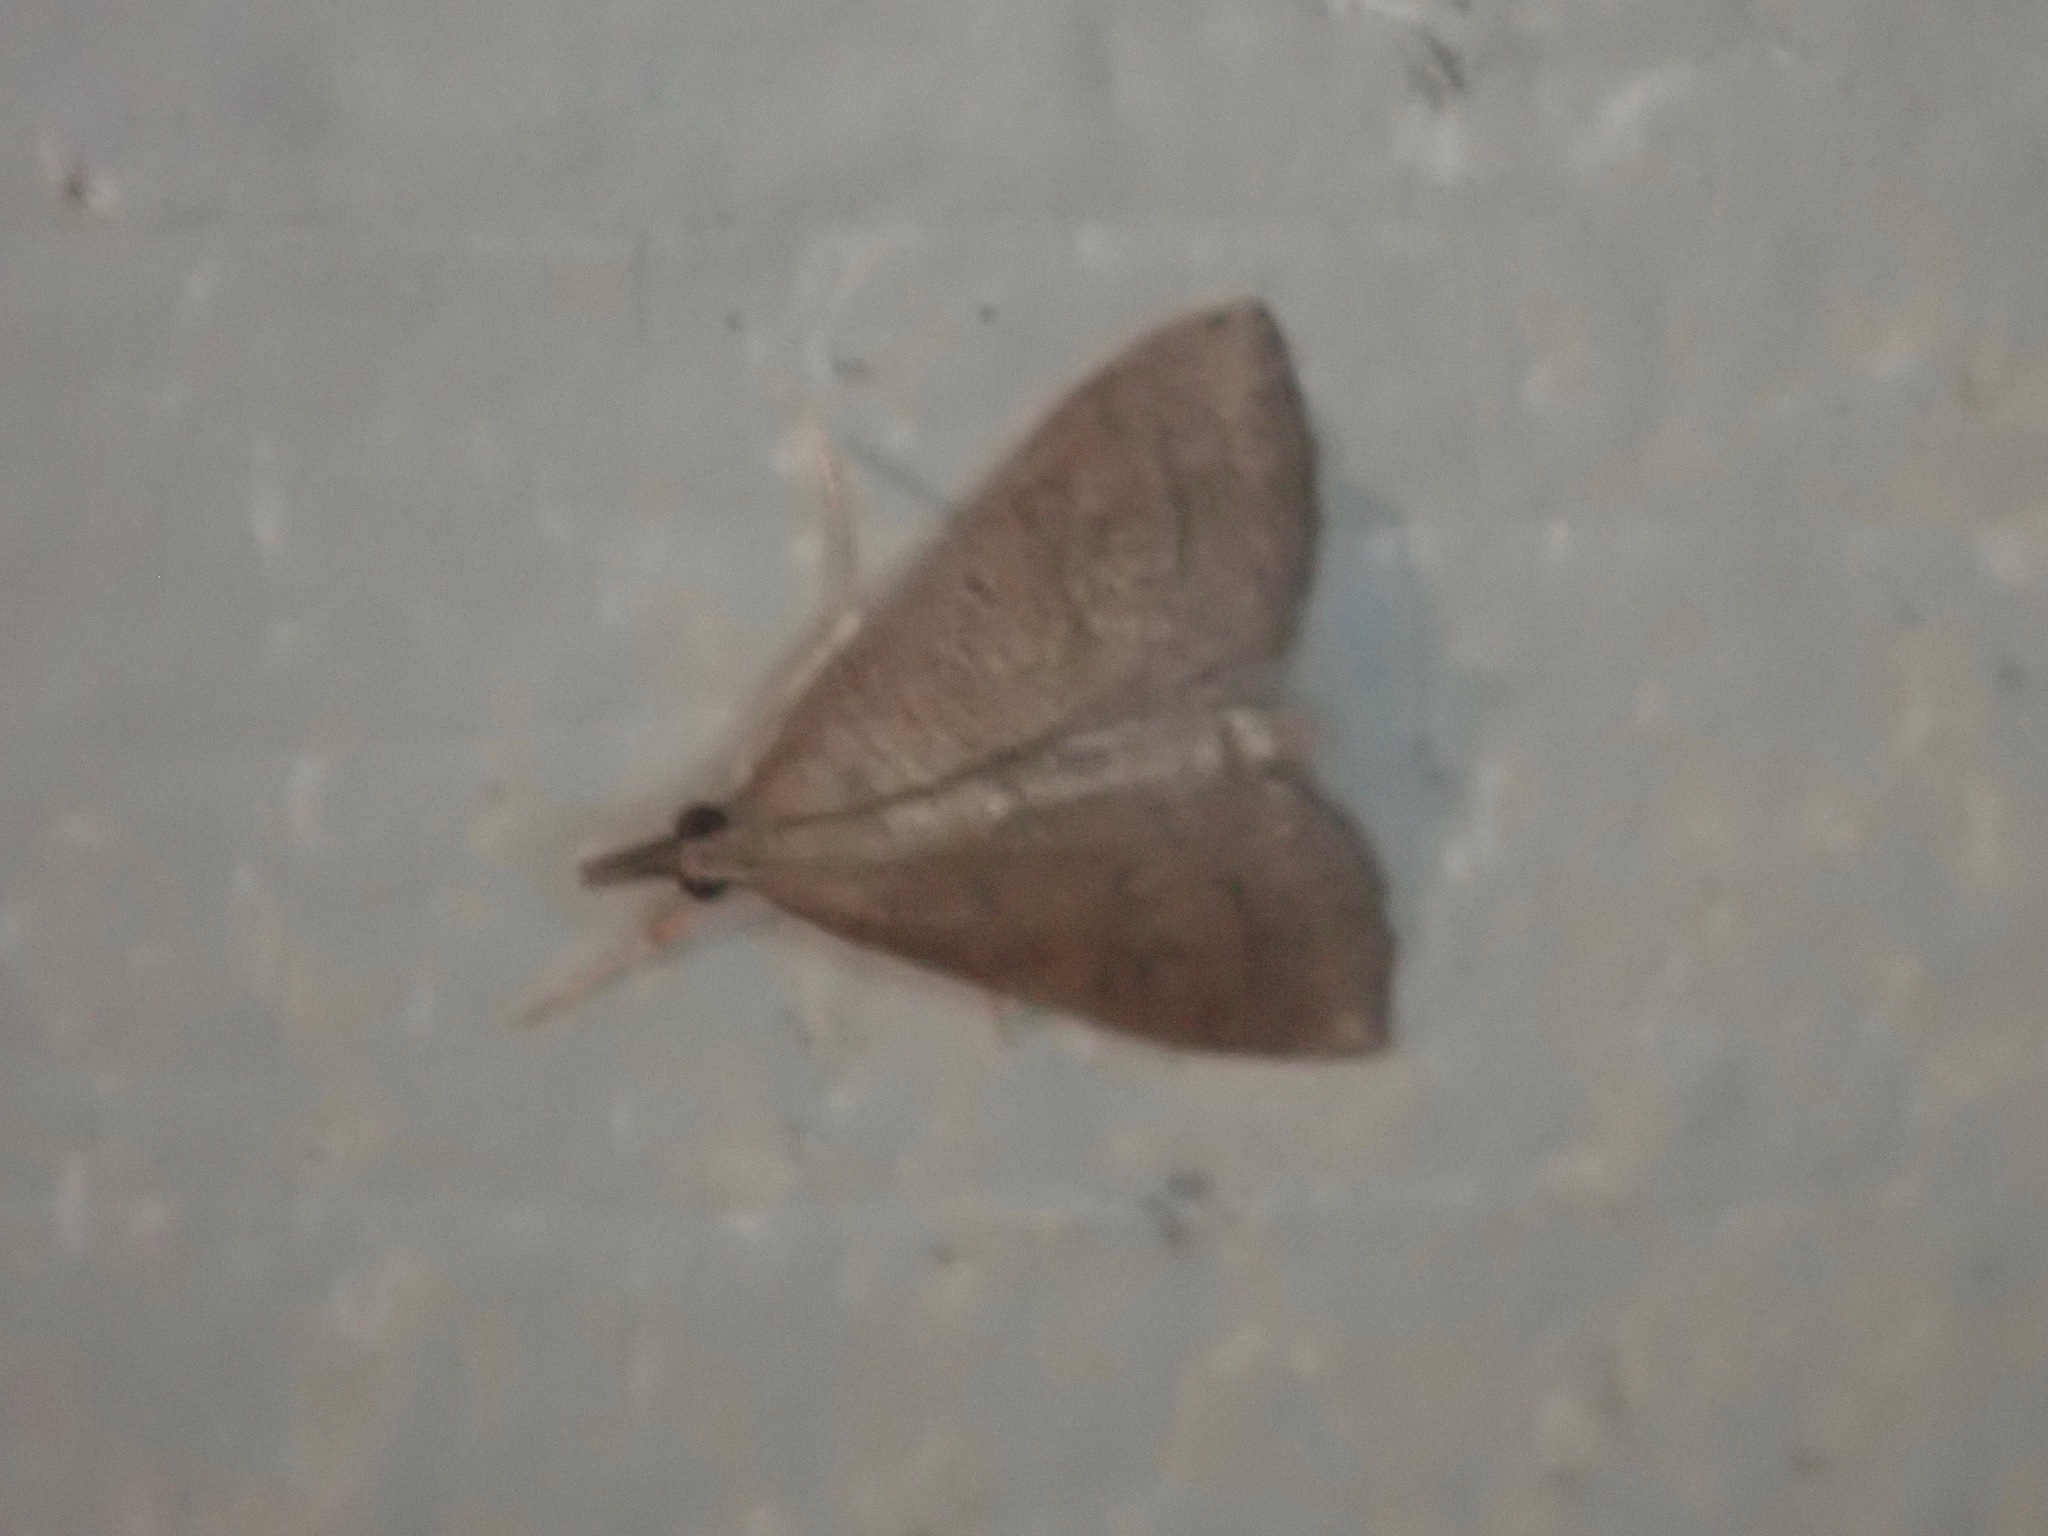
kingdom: Animalia
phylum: Arthropoda
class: Insecta
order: Lepidoptera
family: Crambidae
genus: Udea
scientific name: Udea rubigalis
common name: Celery leaftier moth
